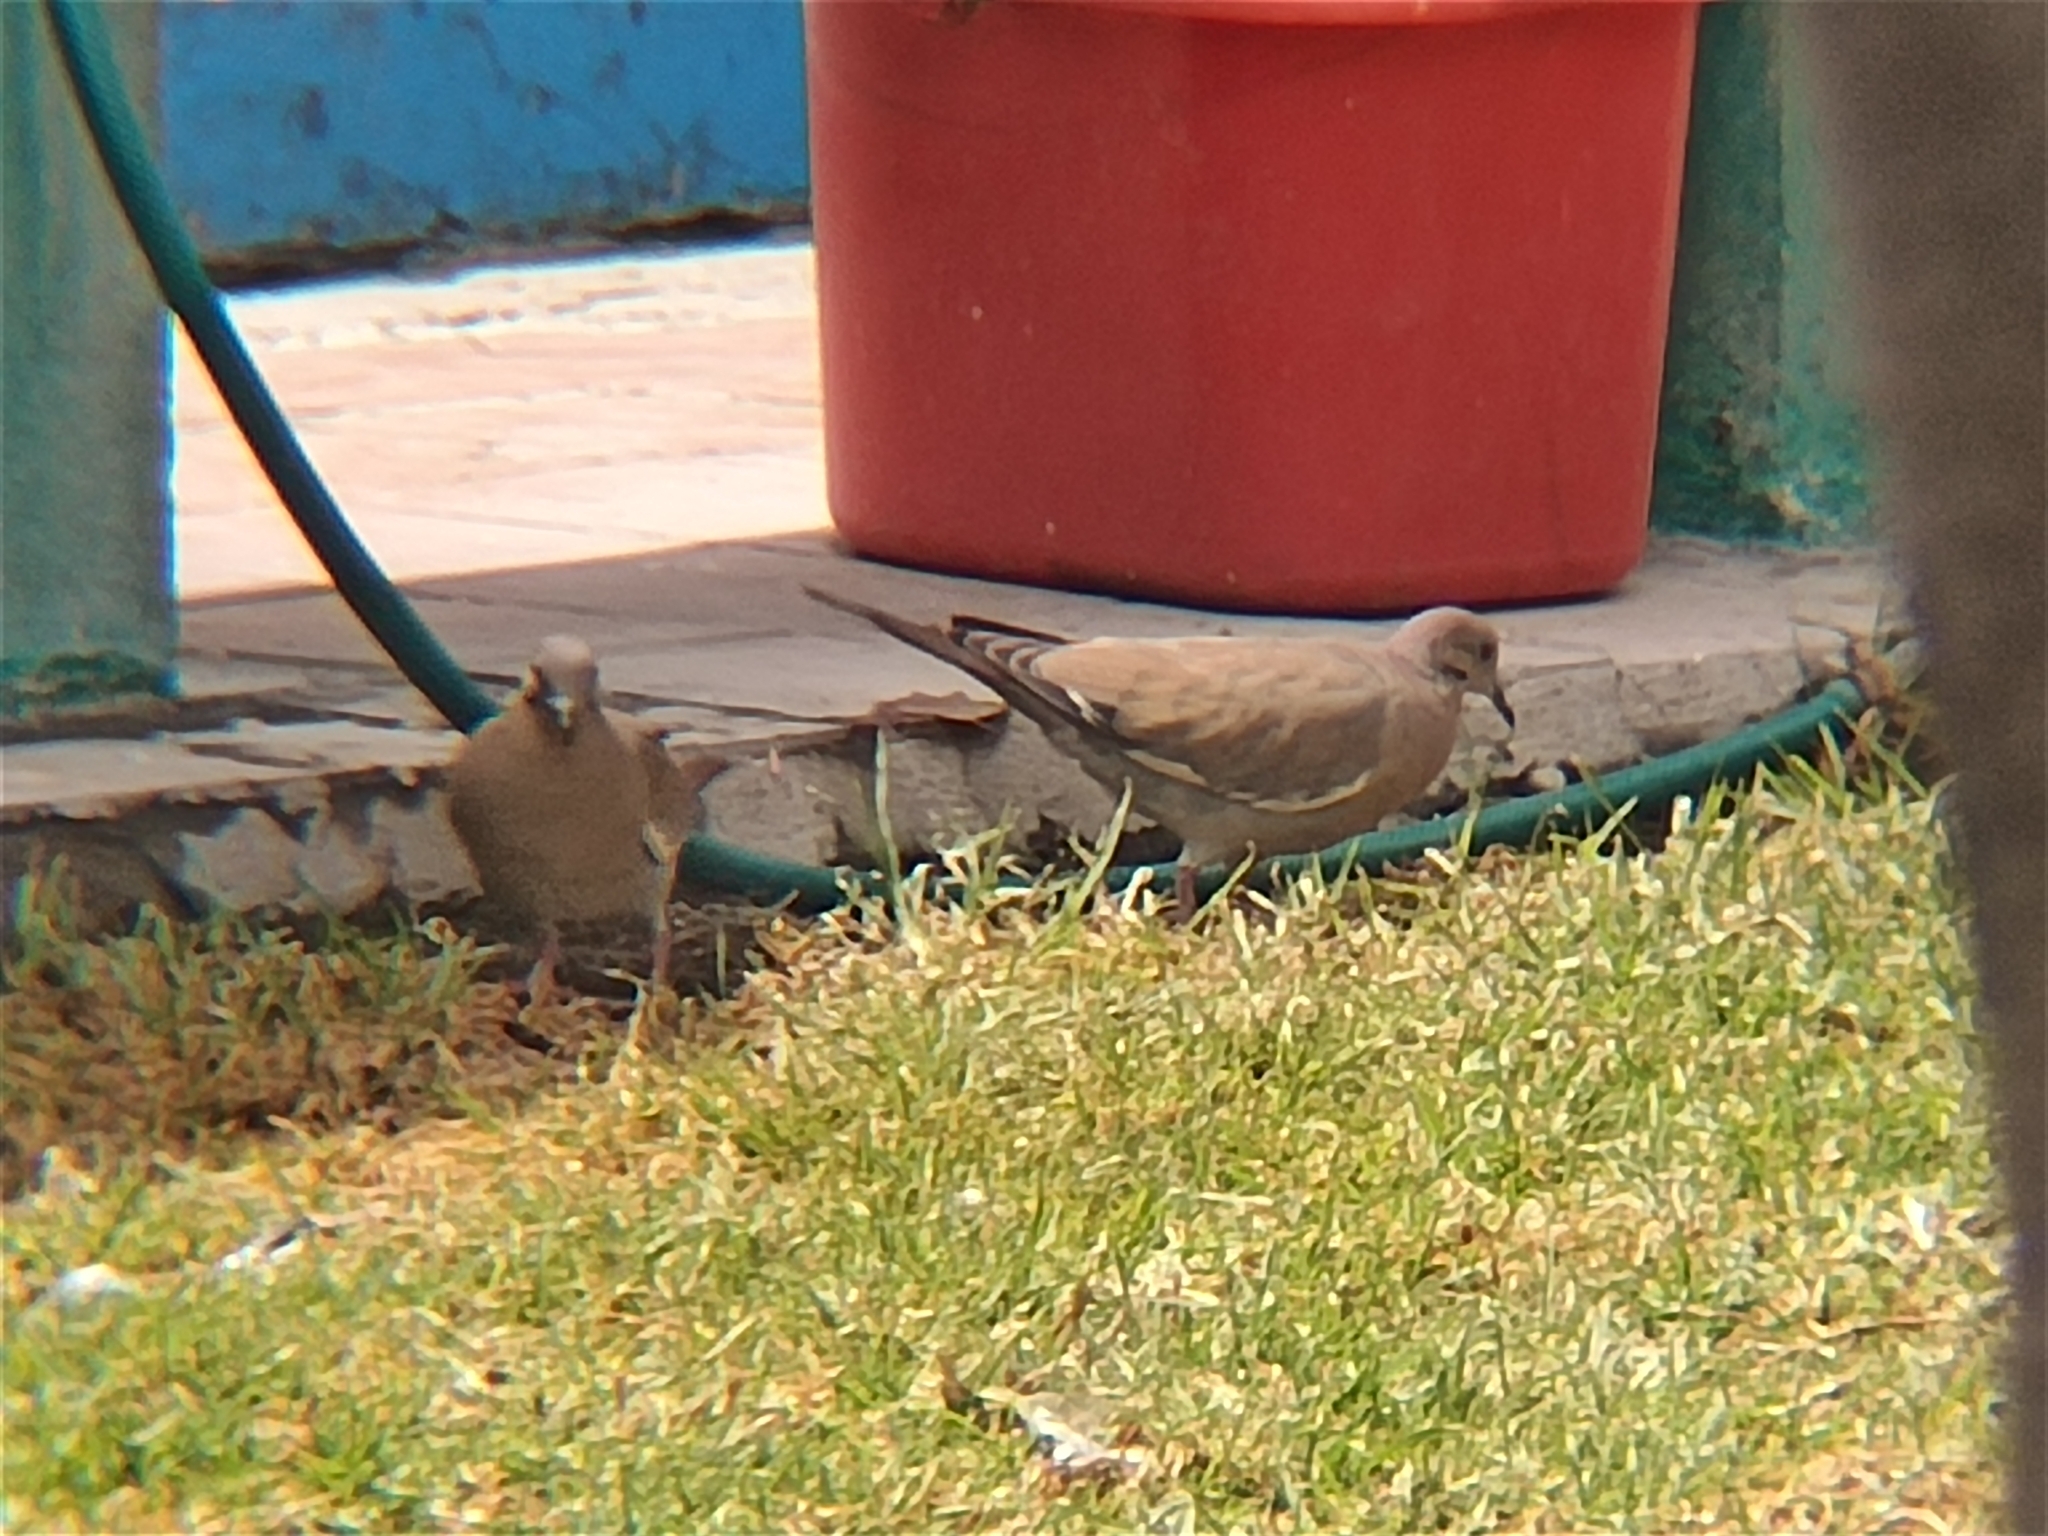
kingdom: Animalia
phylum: Chordata
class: Aves
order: Columbiformes
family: Columbidae
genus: Zenaida
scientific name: Zenaida asiatica
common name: White-winged dove
